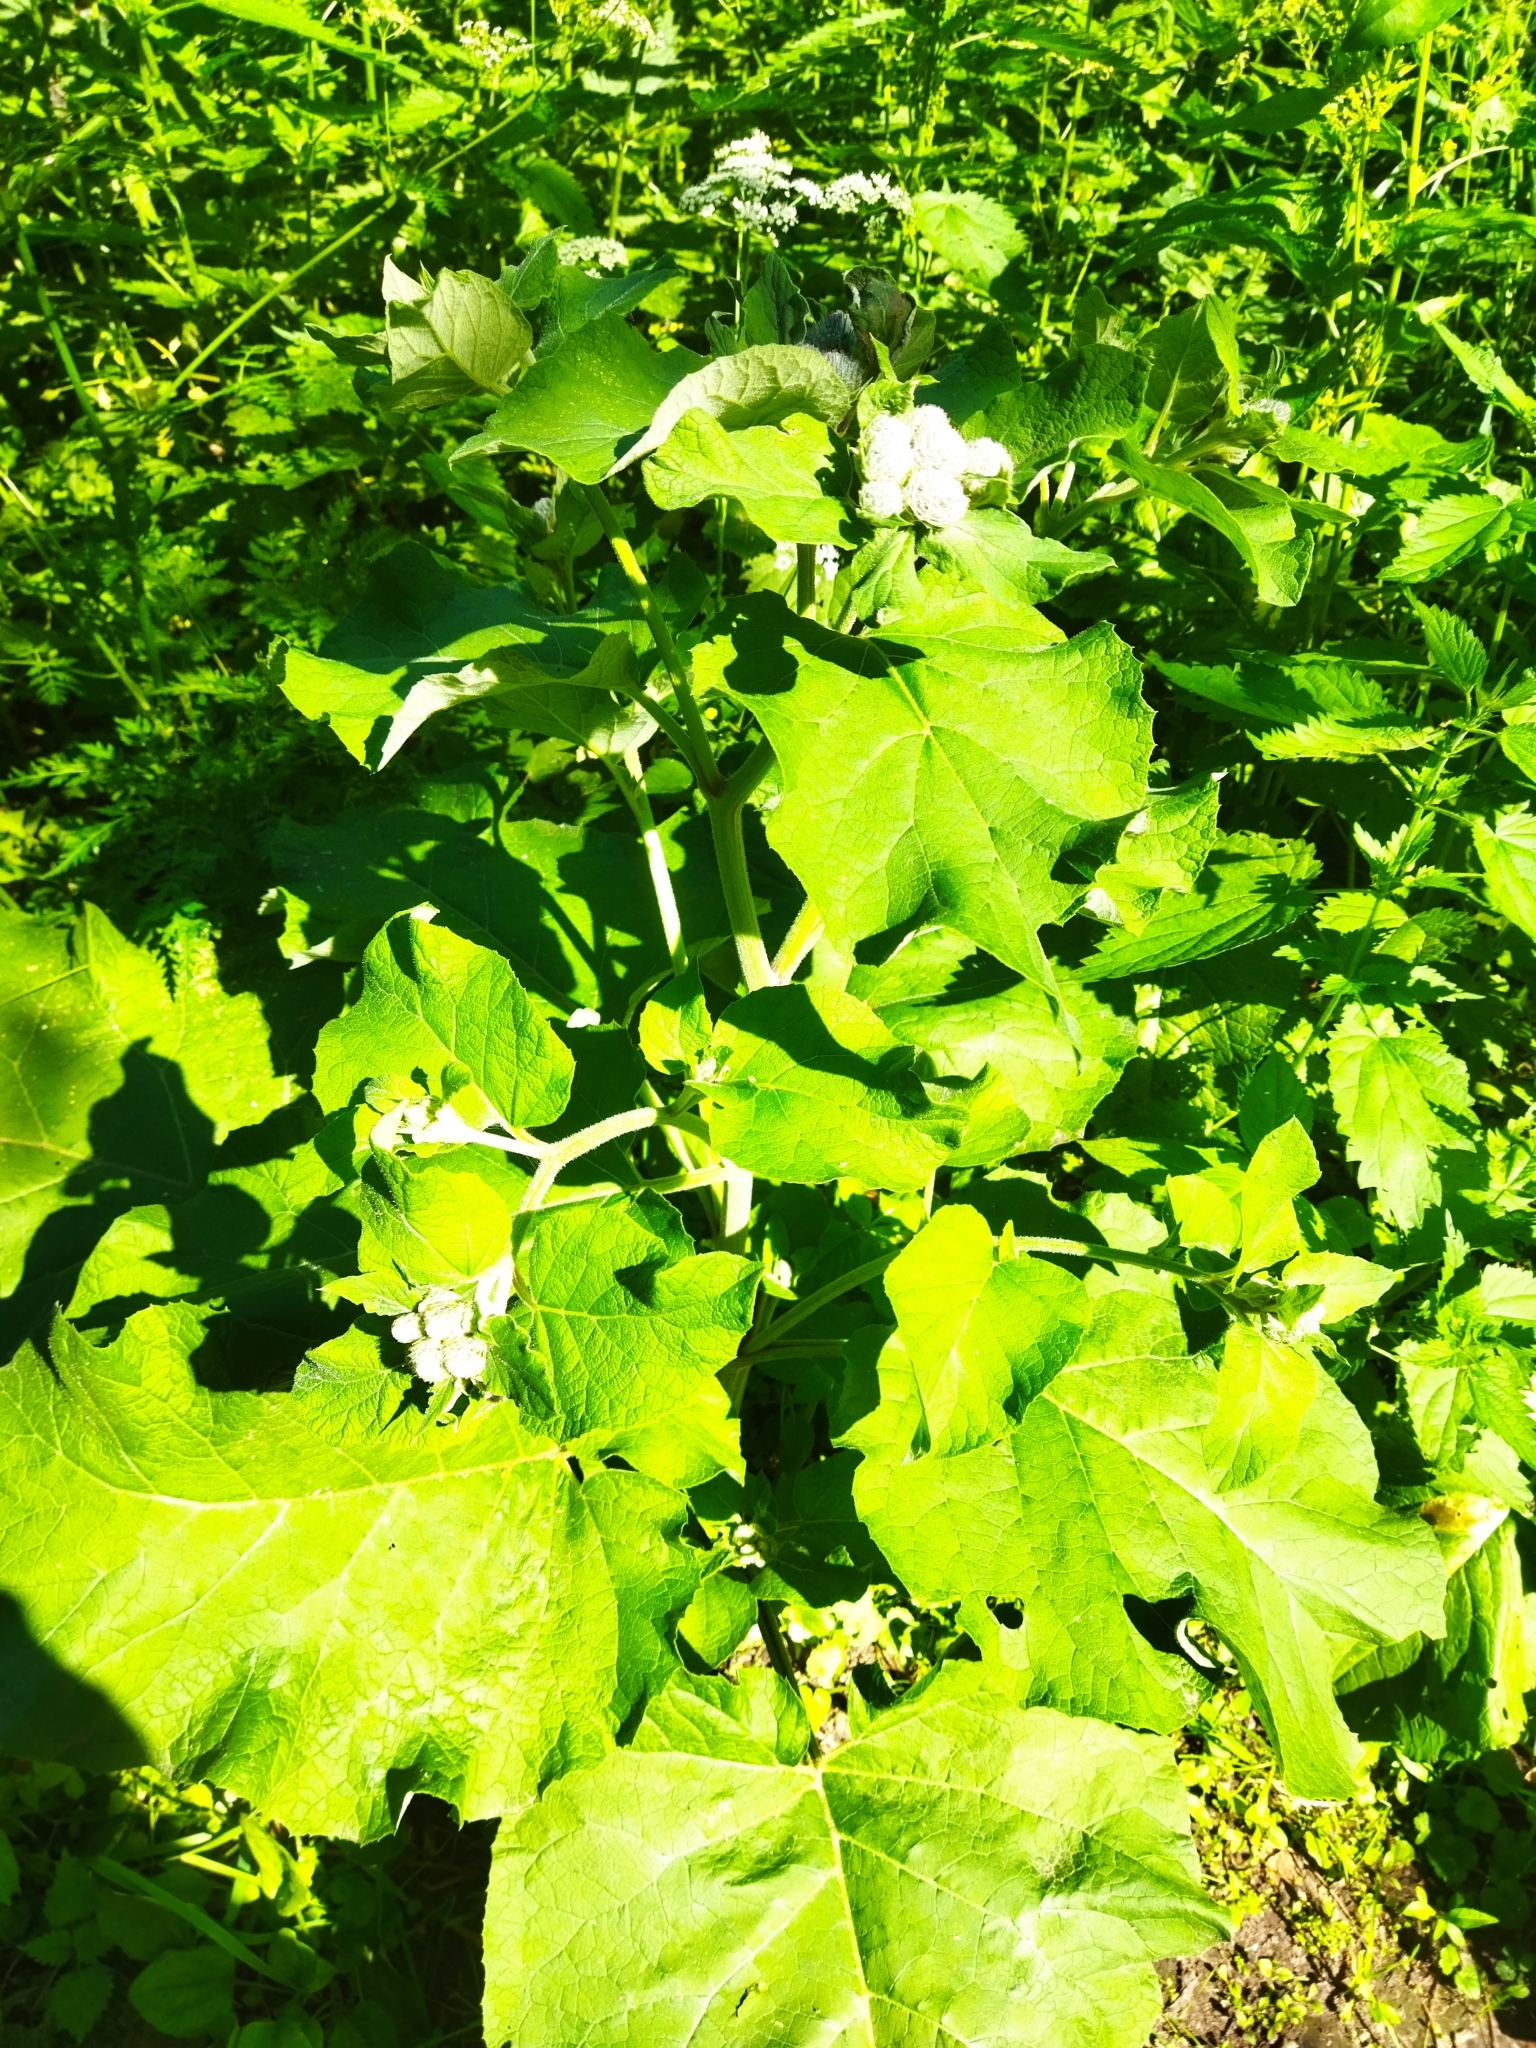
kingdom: Plantae
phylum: Tracheophyta
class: Magnoliopsida
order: Asterales
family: Asteraceae
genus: Arctium
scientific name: Arctium tomentosum
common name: Woolly burdock
